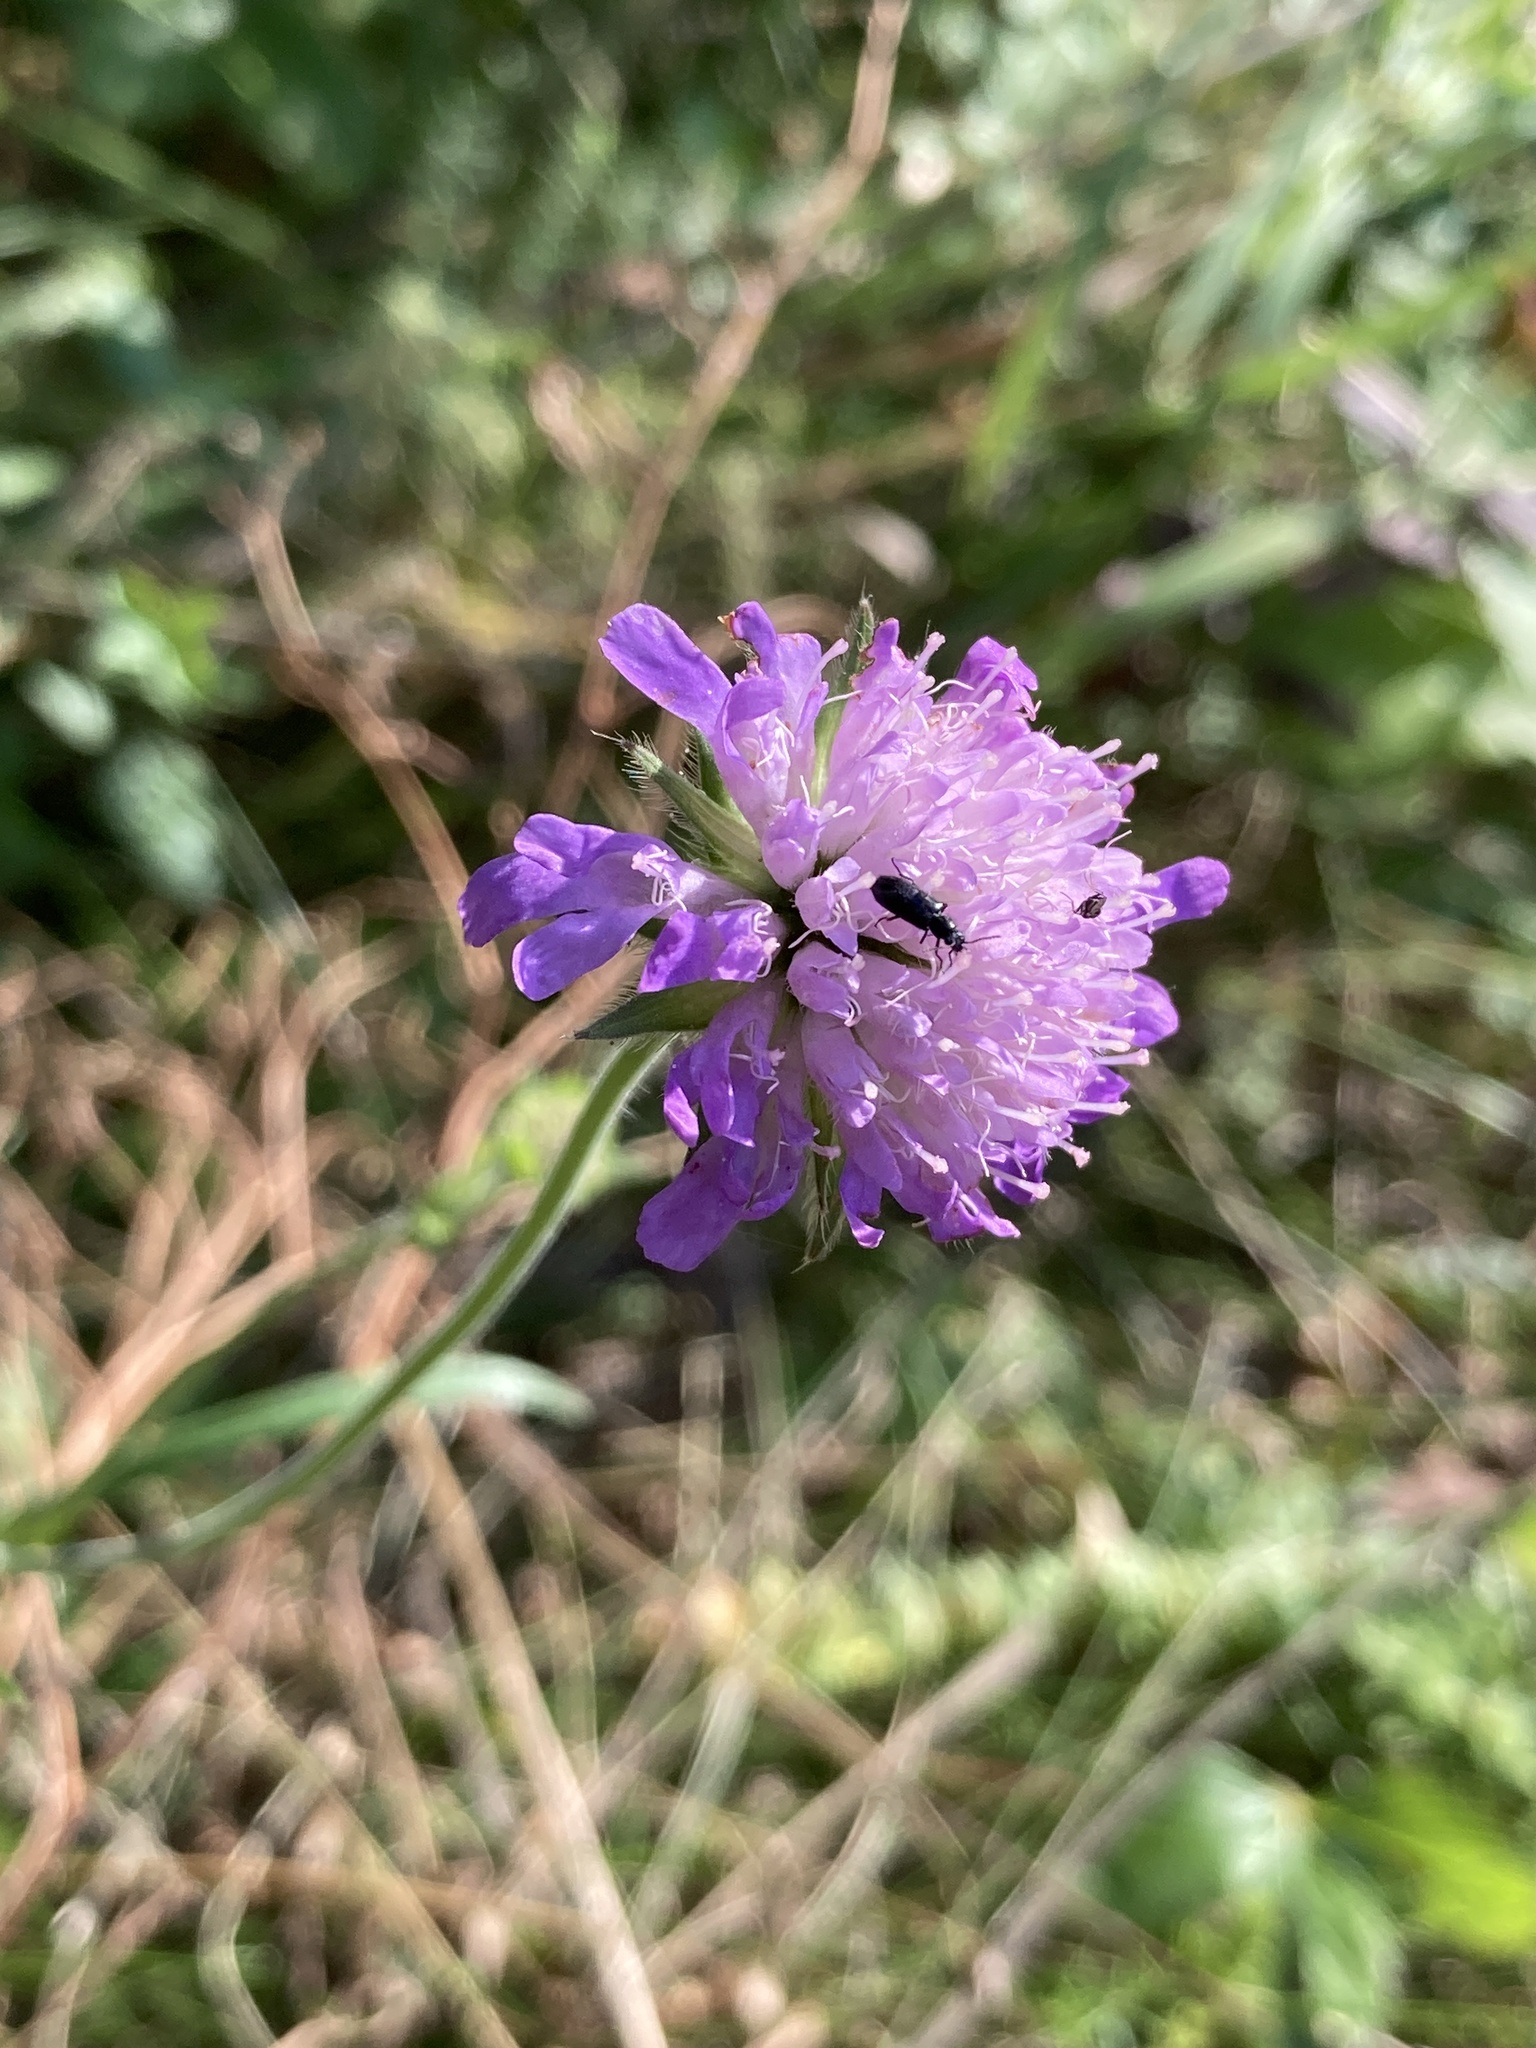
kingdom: Plantae
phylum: Tracheophyta
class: Magnoliopsida
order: Dipsacales
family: Caprifoliaceae
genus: Knautia
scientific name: Knautia arvensis
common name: Field scabiosa
